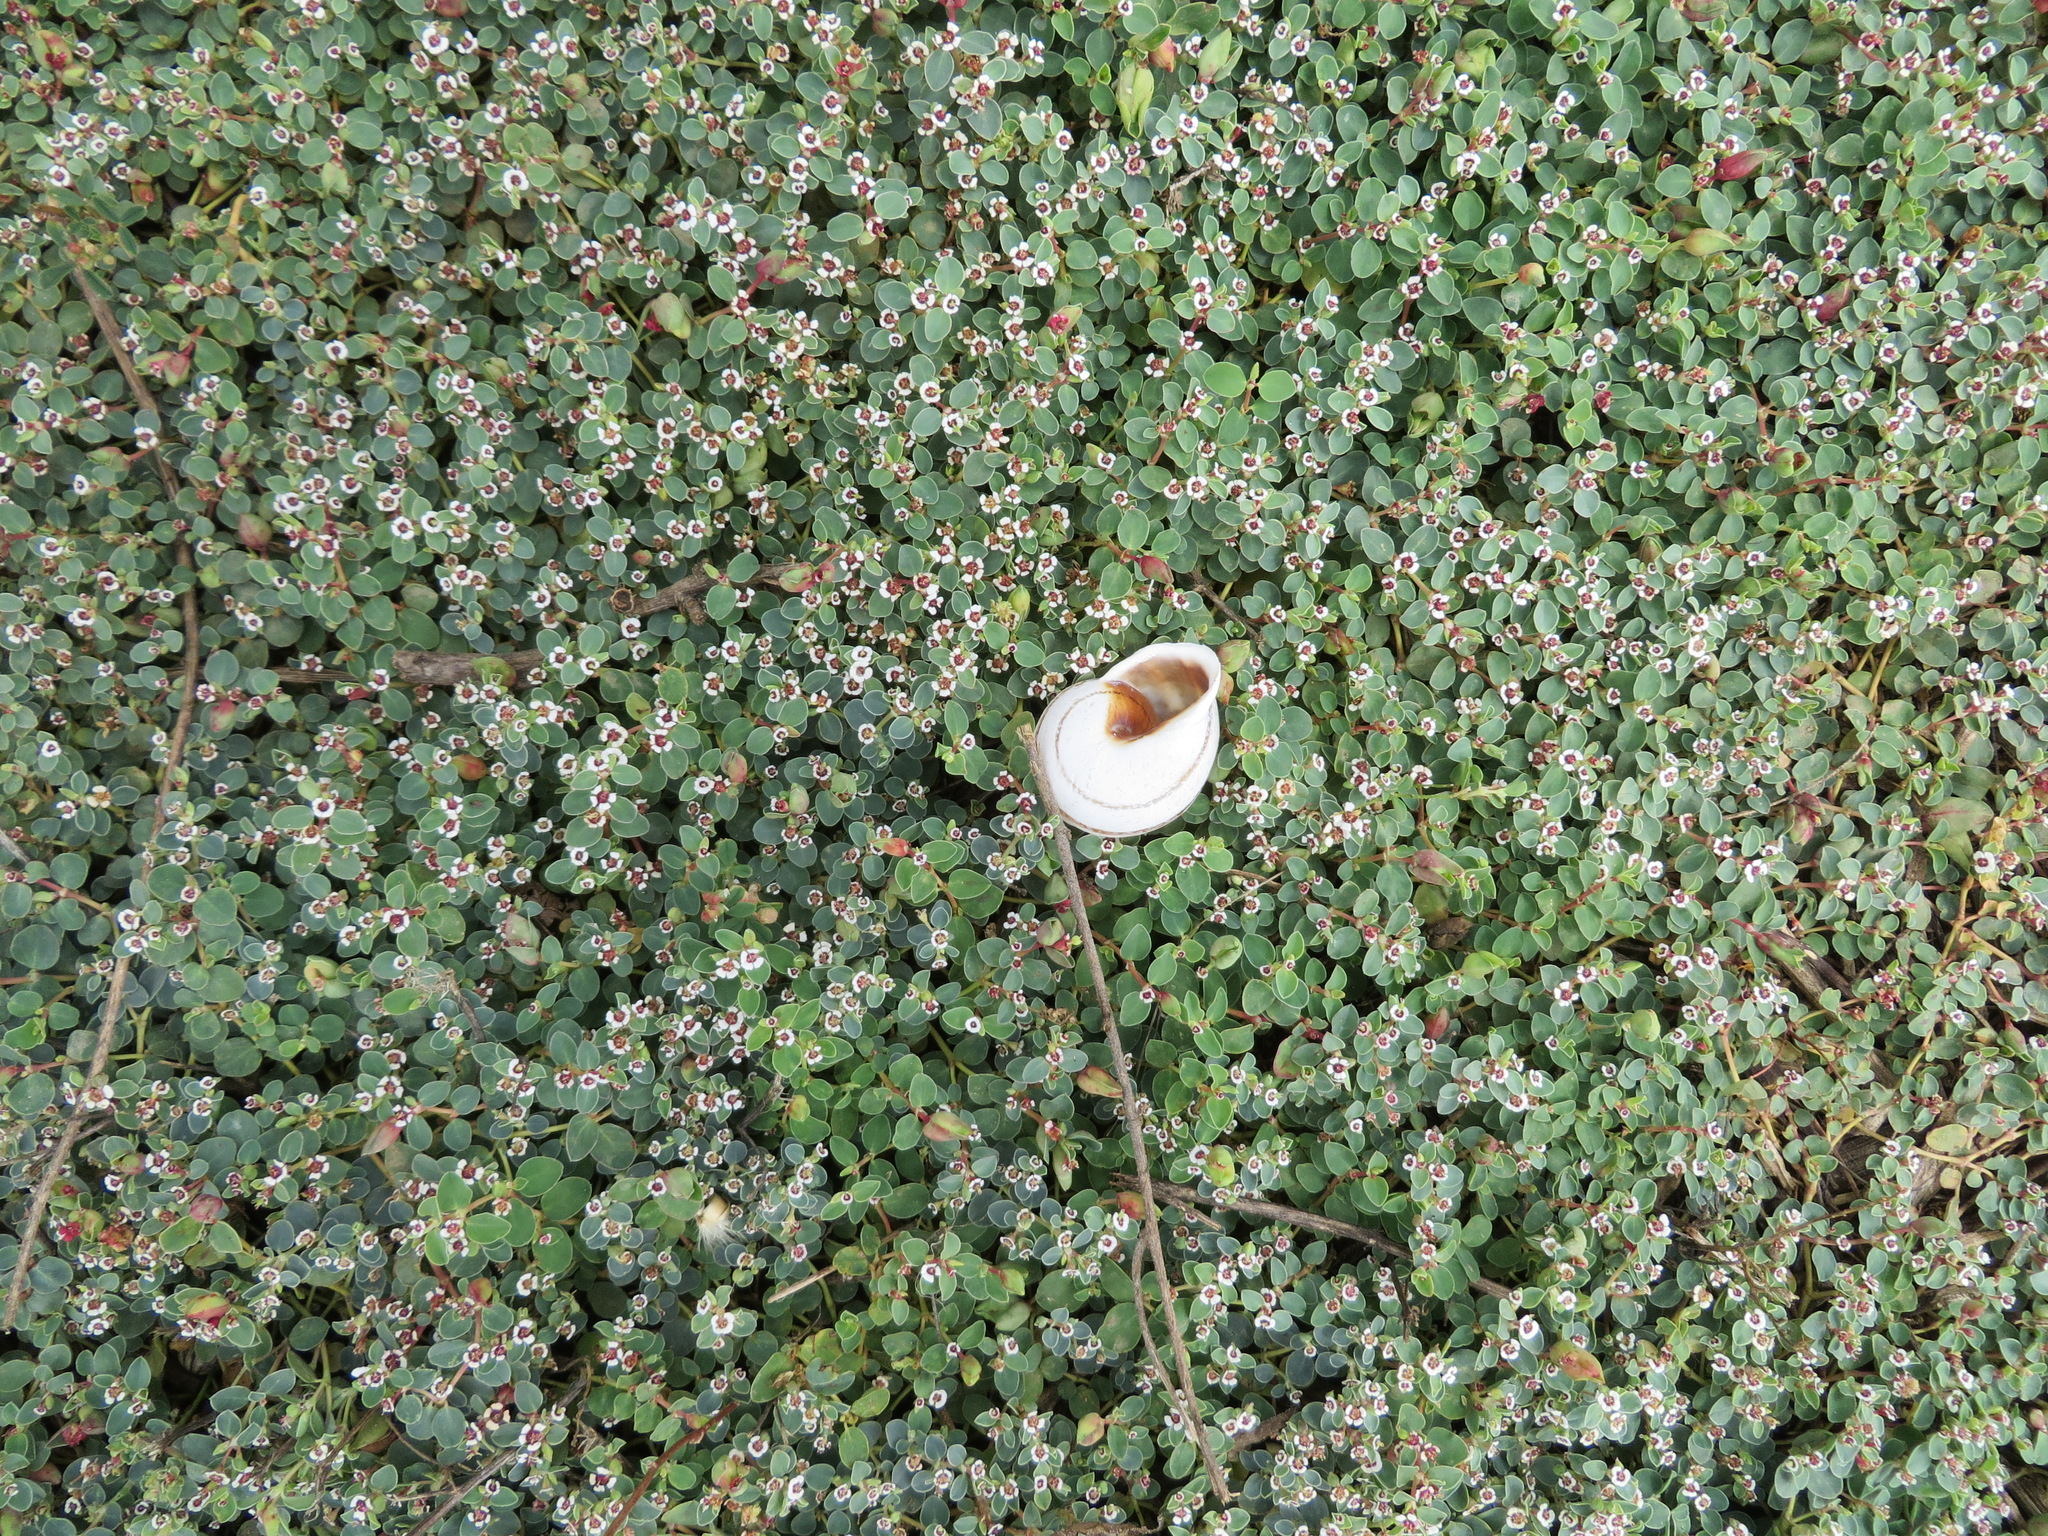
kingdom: Plantae
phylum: Tracheophyta
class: Magnoliopsida
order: Malpighiales
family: Euphorbiaceae
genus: Euphorbia
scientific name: Euphorbia albomarginata
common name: Whitemargin sandmat
